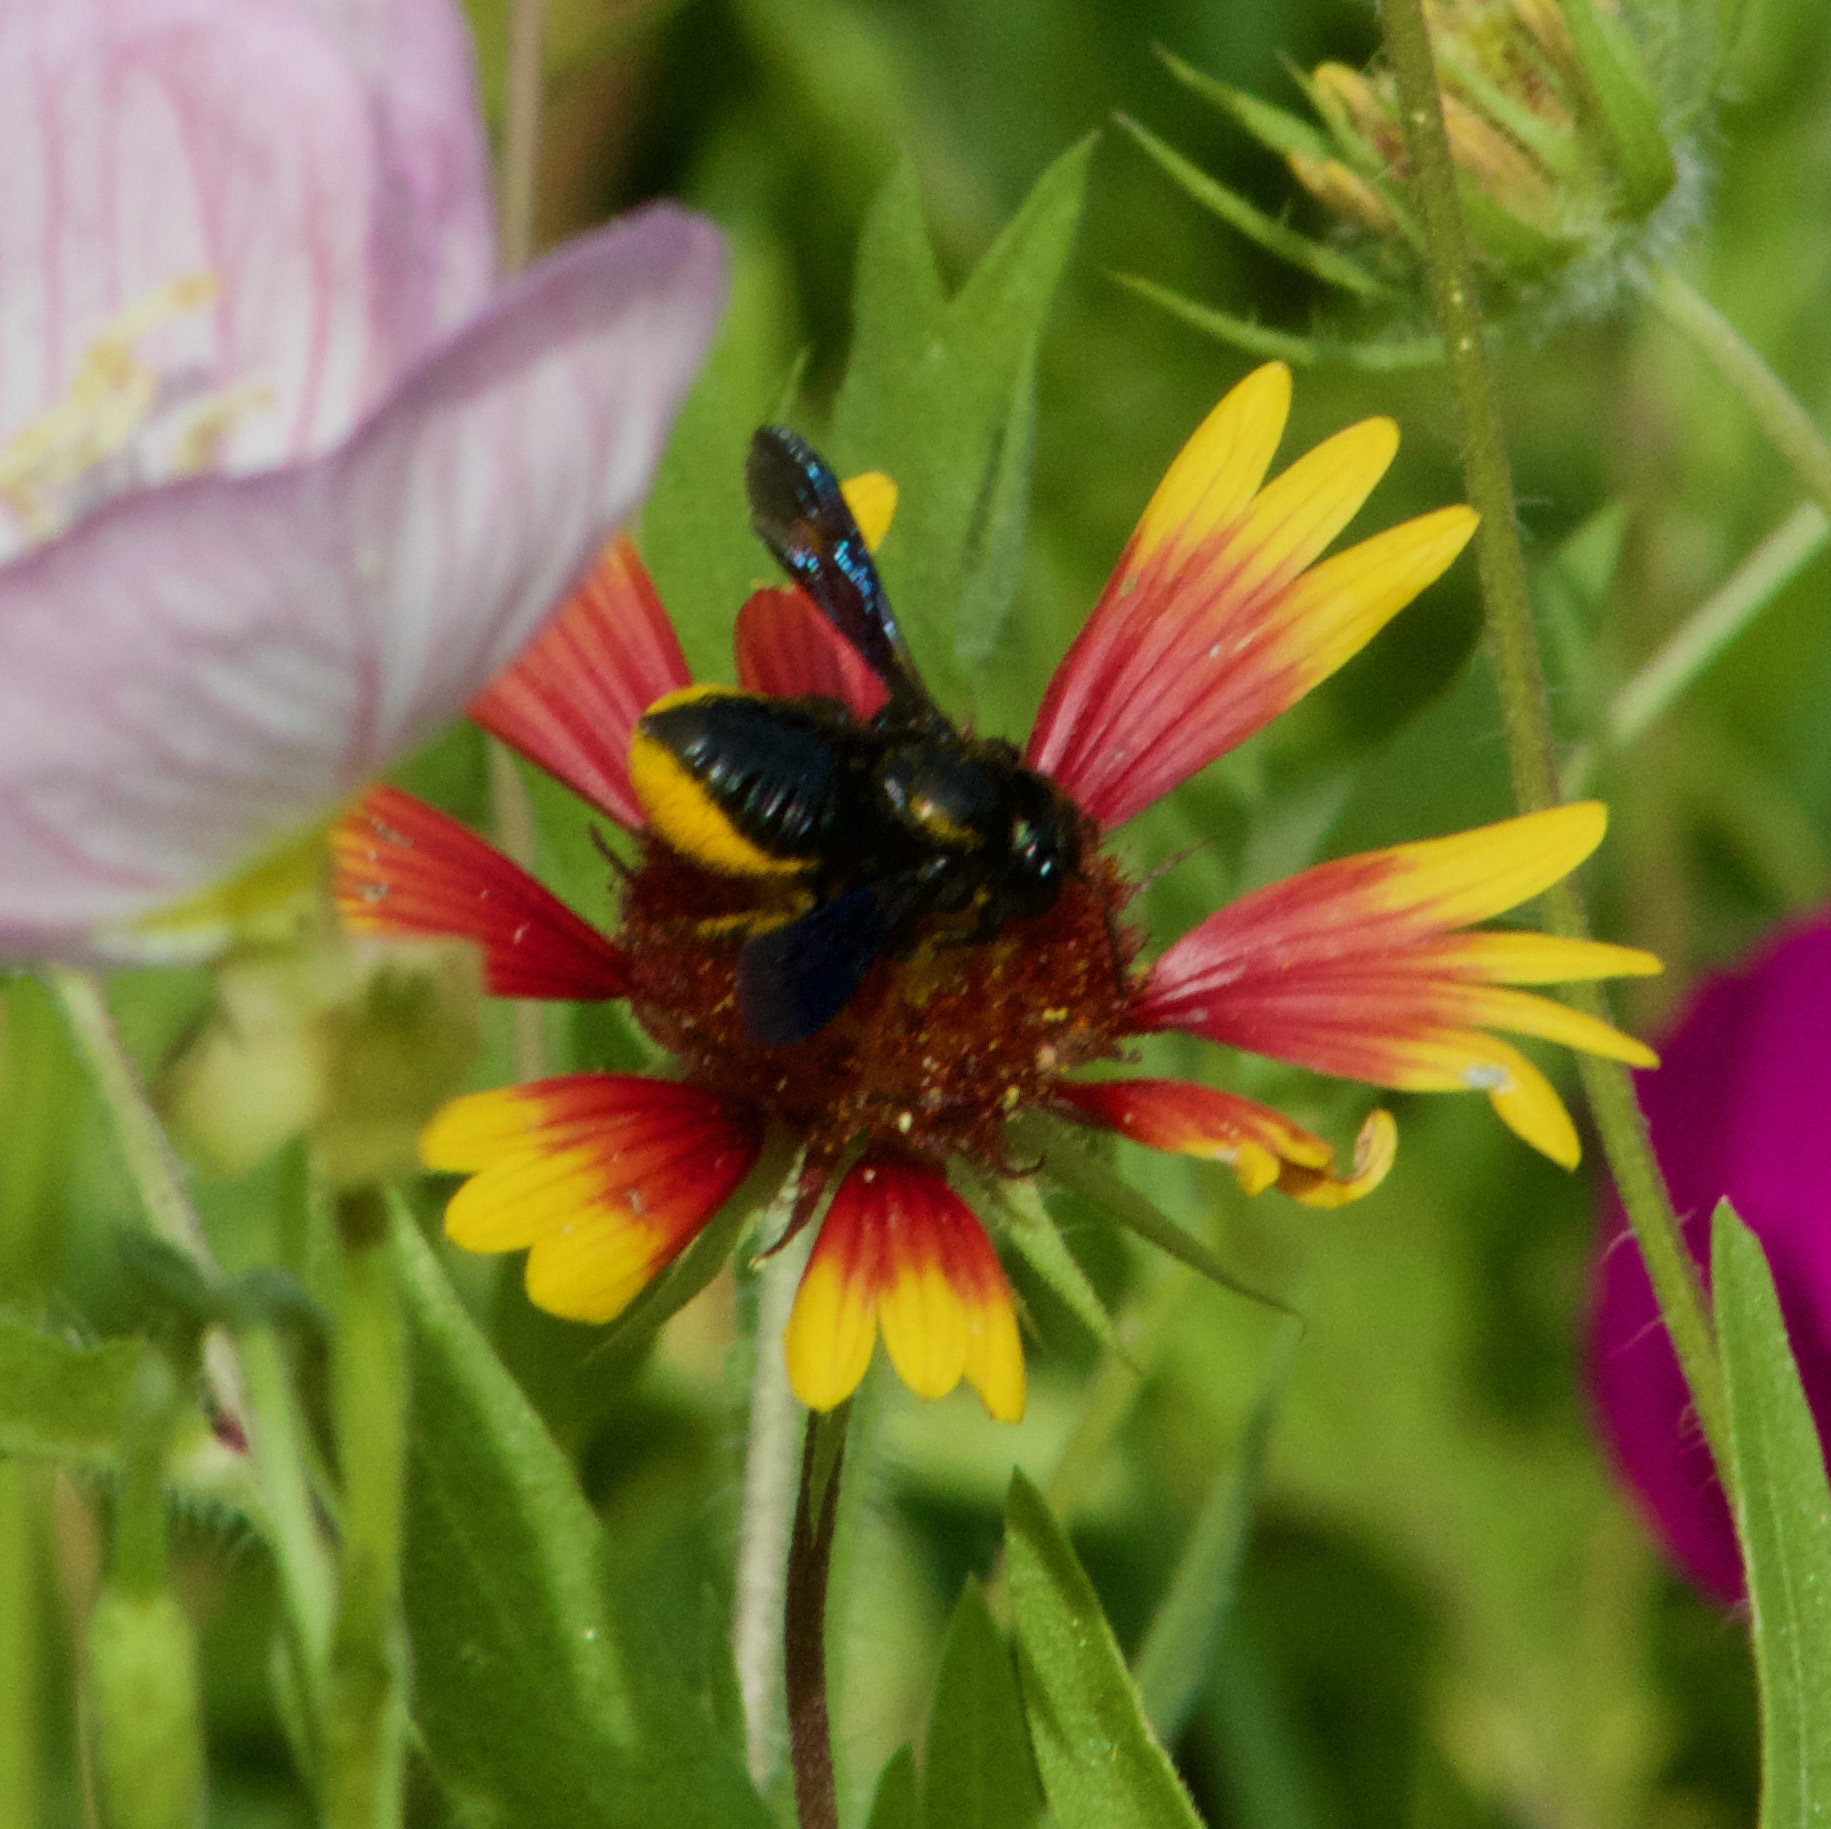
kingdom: Animalia
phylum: Arthropoda
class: Insecta
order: Hymenoptera
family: Megachilidae
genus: Megachile
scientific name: Megachile xylocopoides
